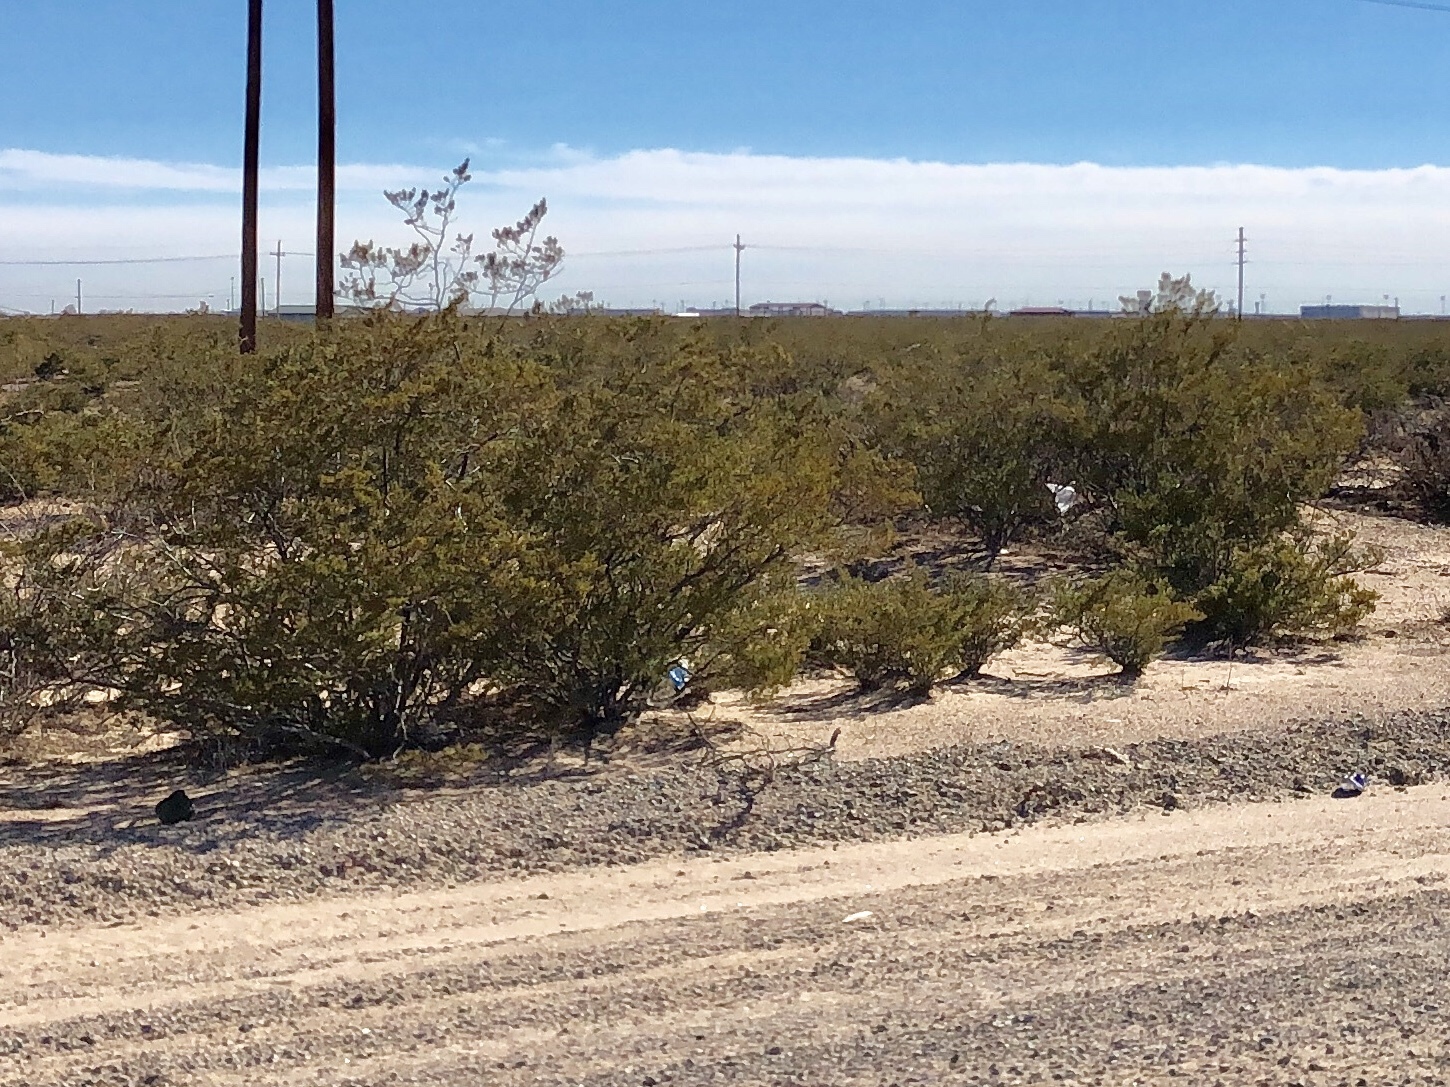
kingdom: Plantae
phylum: Tracheophyta
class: Magnoliopsida
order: Zygophyllales
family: Zygophyllaceae
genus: Larrea
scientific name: Larrea tridentata
